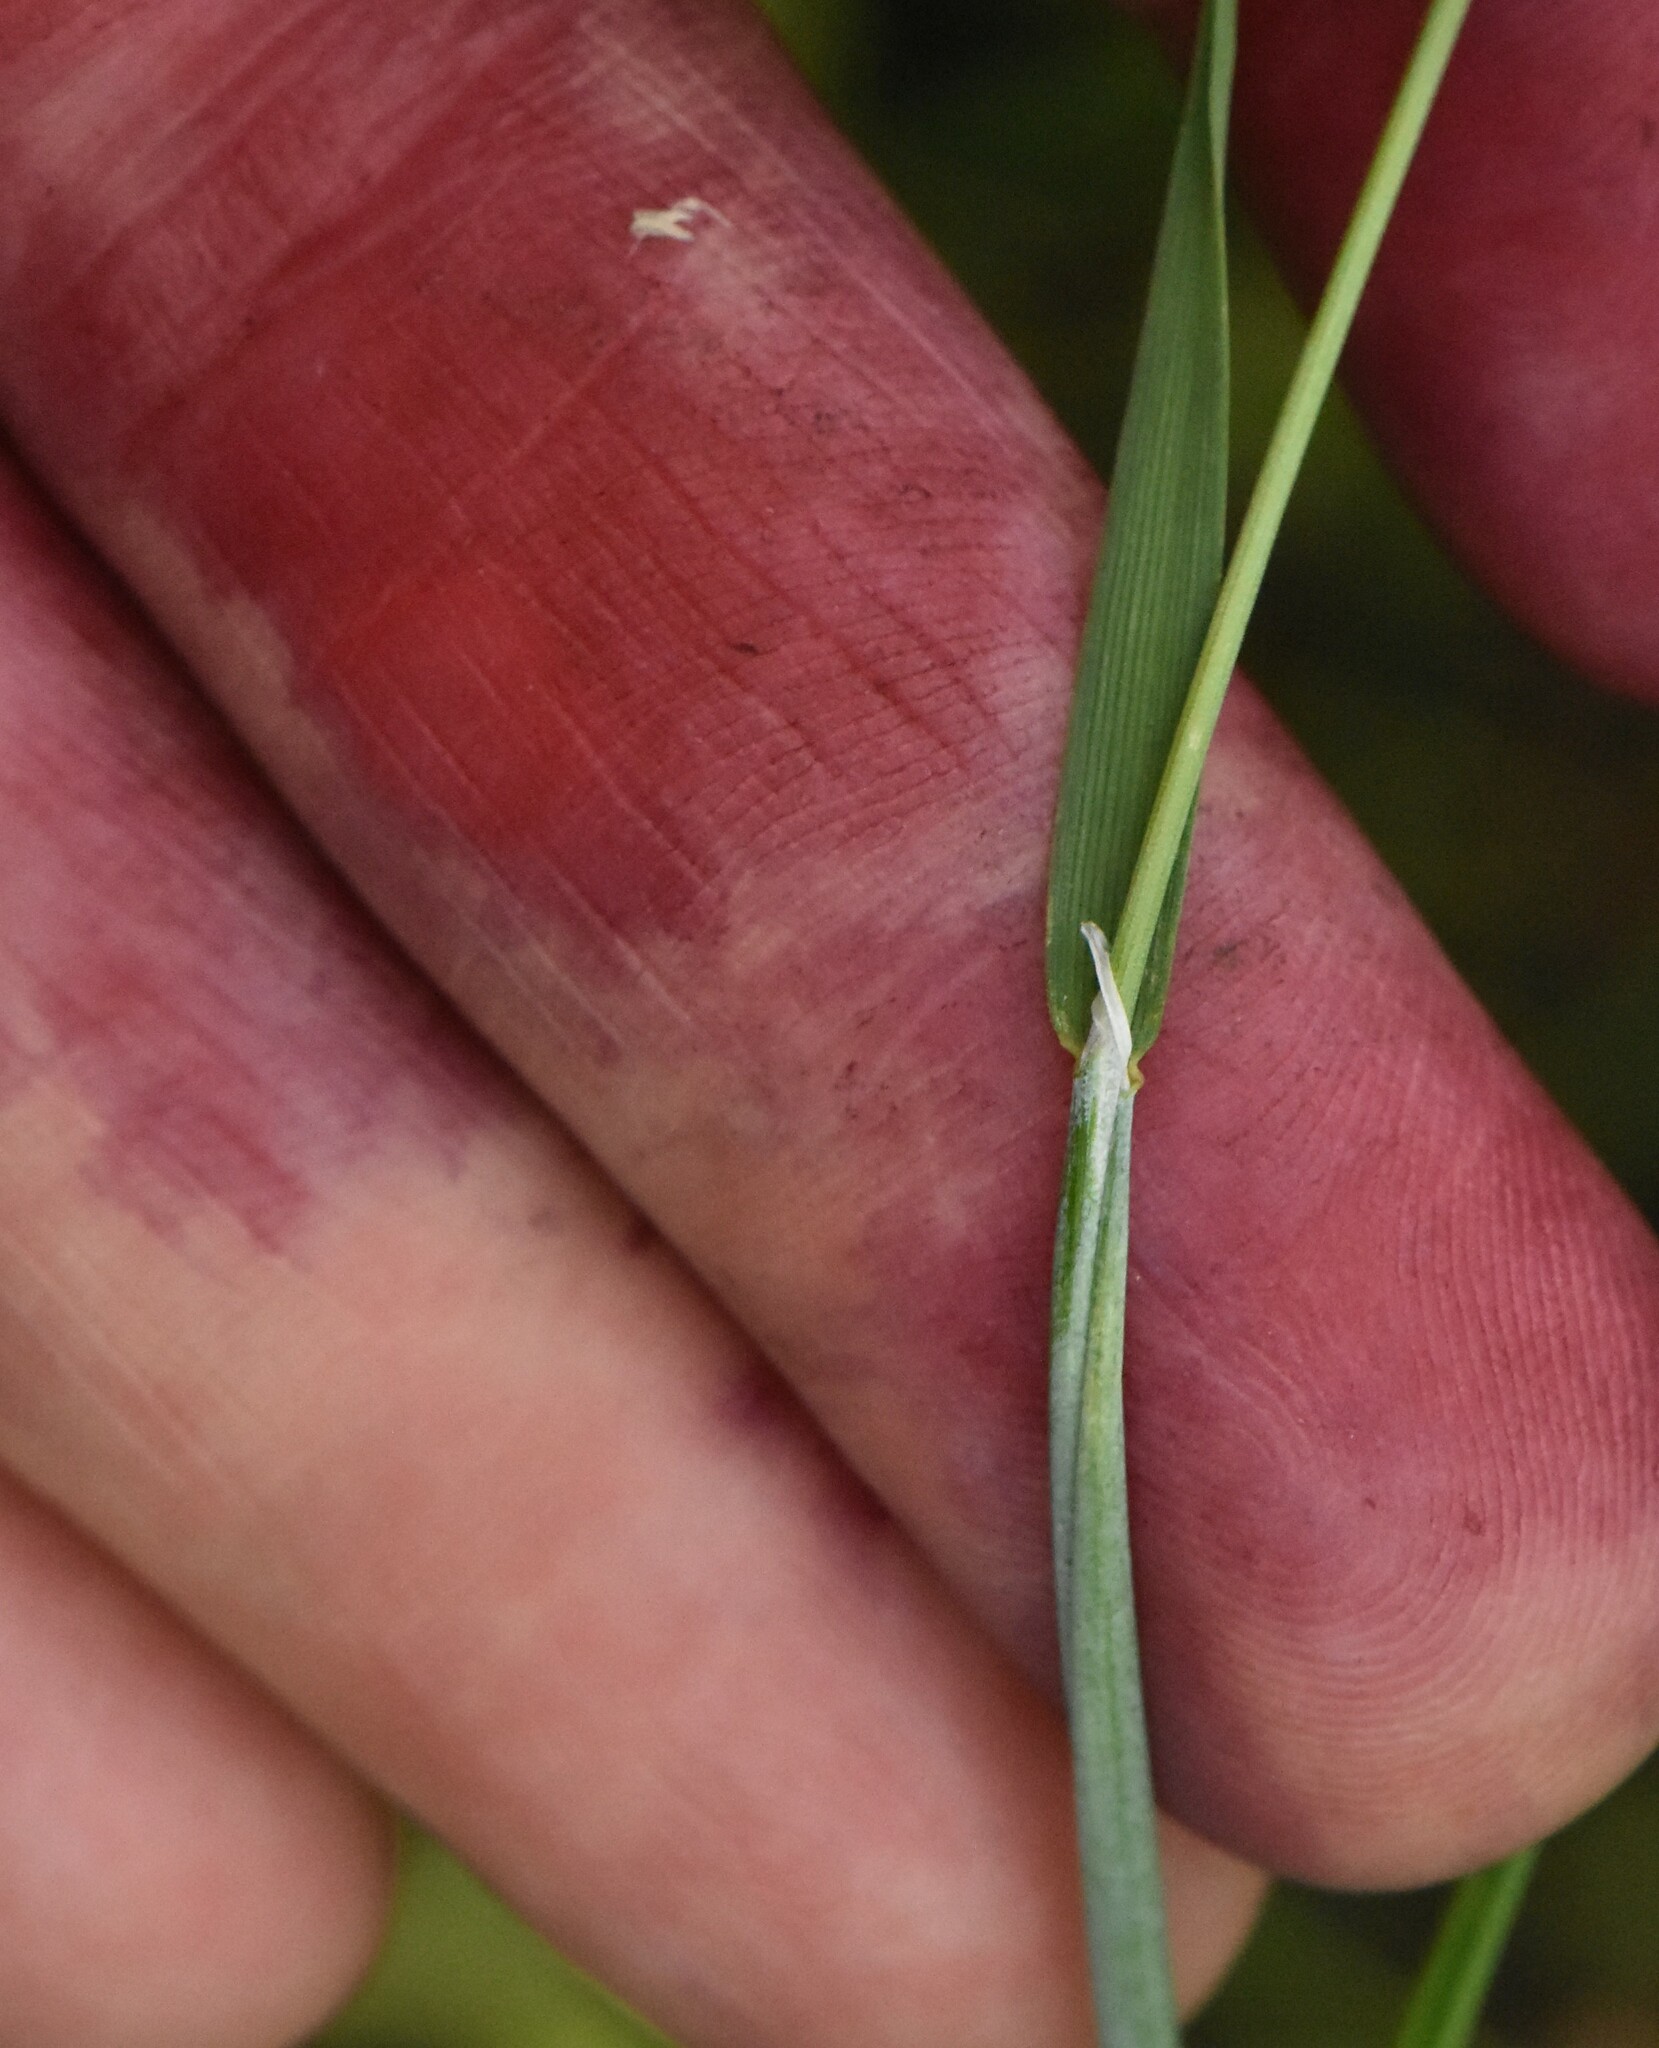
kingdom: Plantae
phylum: Tracheophyta
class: Liliopsida
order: Poales
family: Poaceae
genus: Alopecurus
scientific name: Alopecurus geniculatus
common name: Water foxtail
